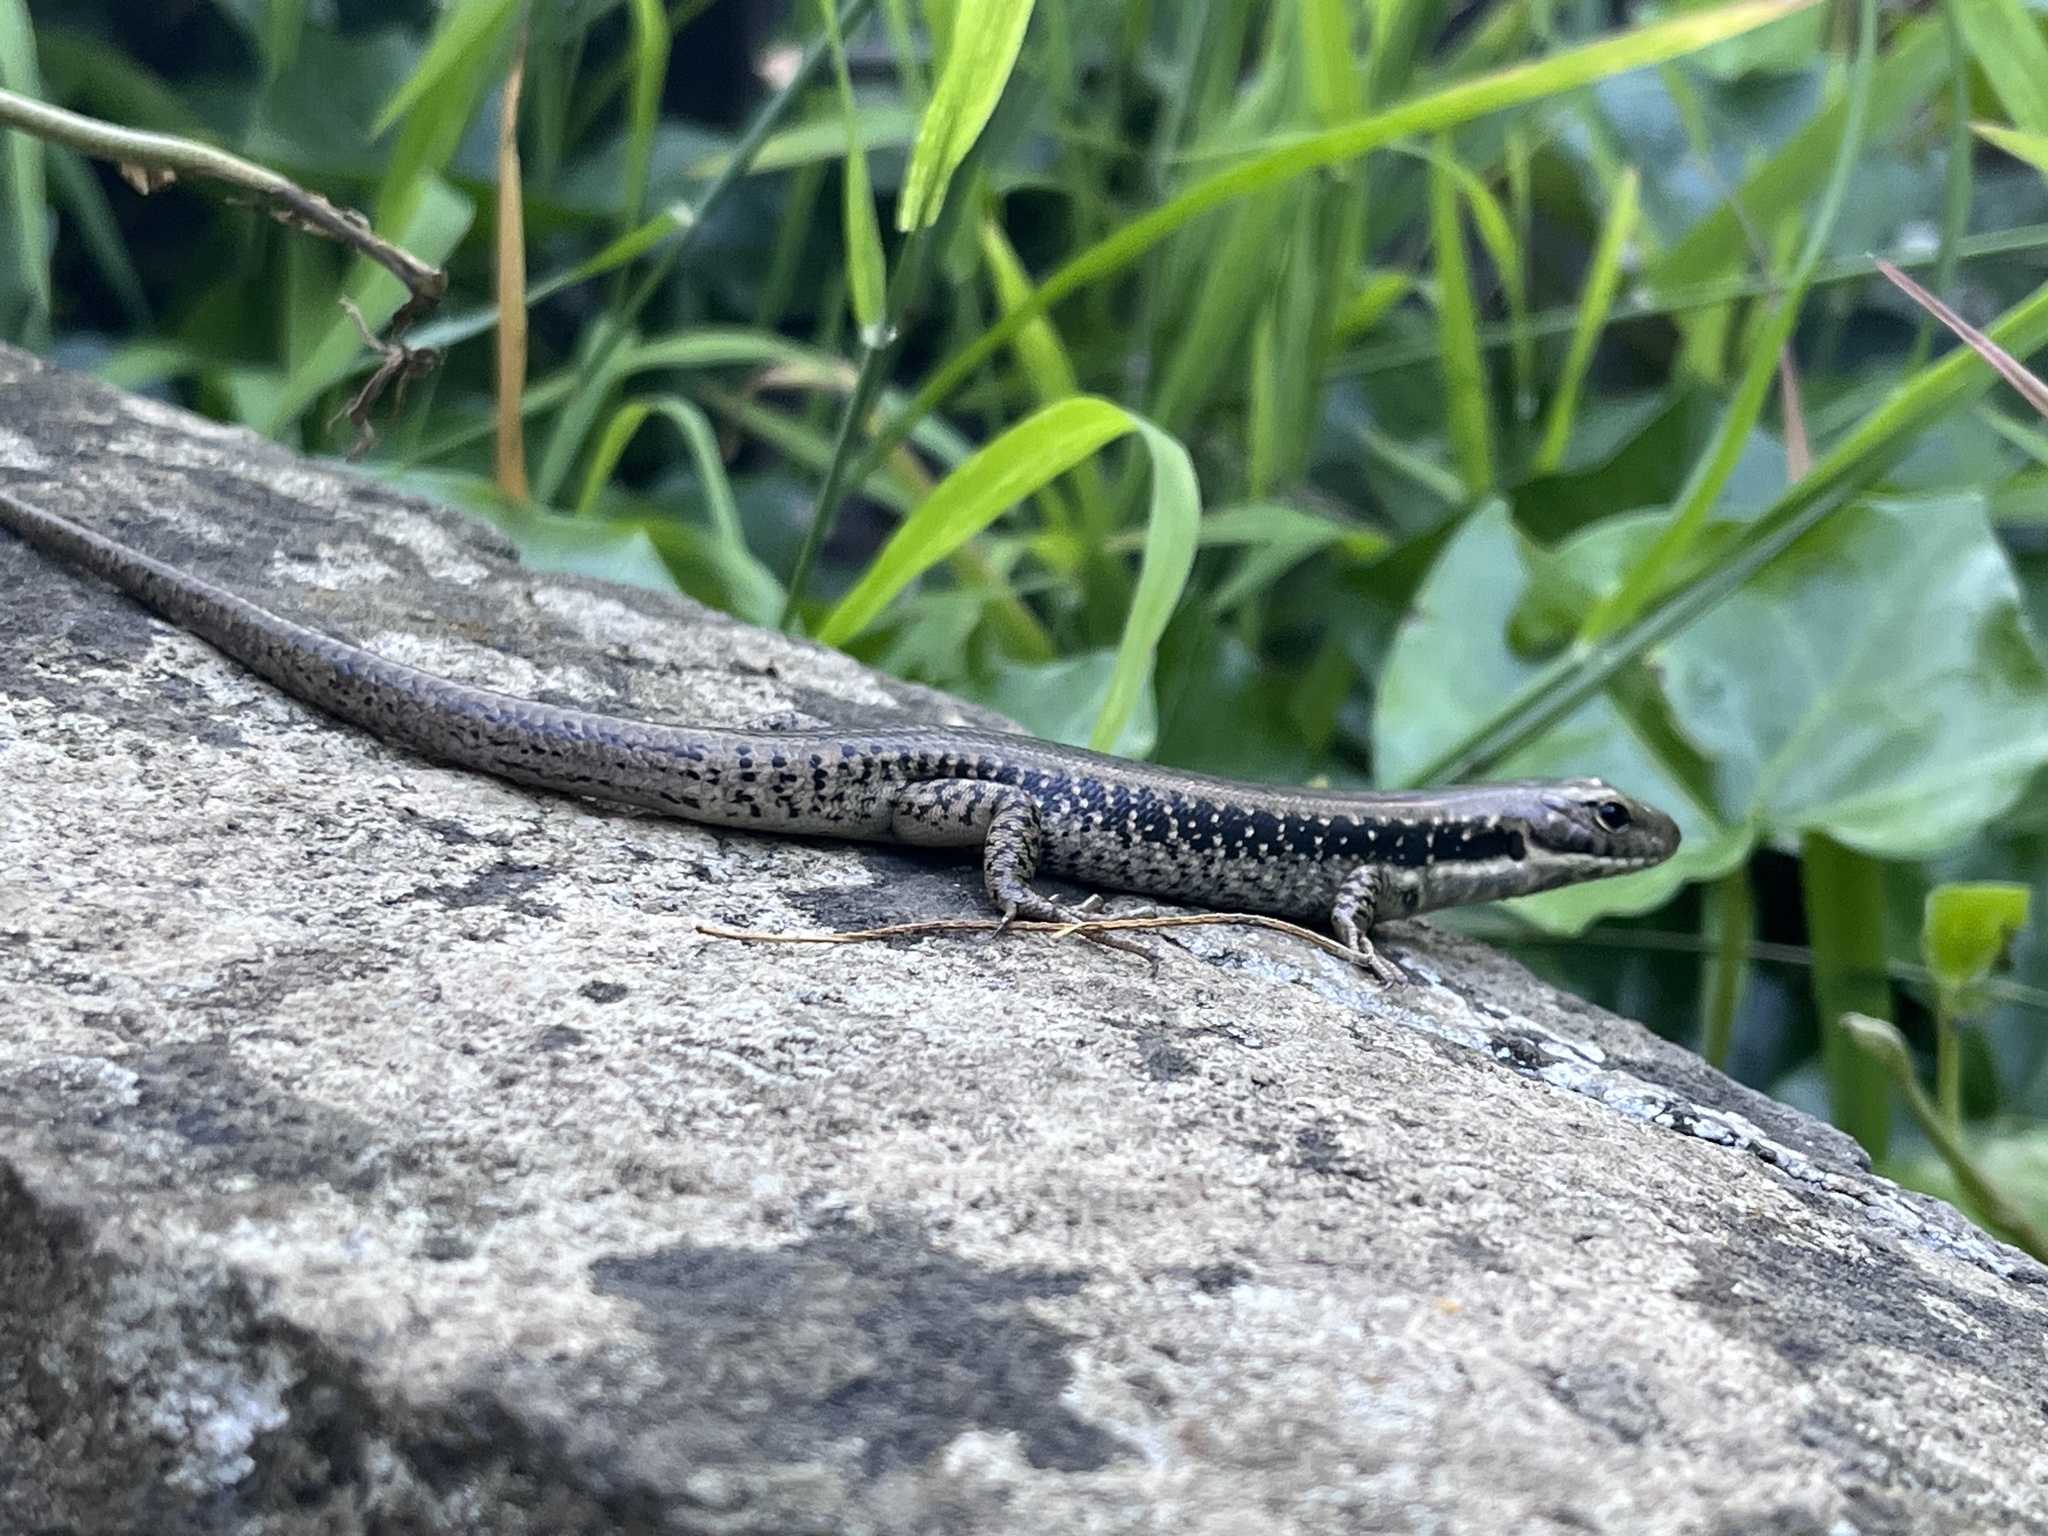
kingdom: Animalia
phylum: Chordata
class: Squamata
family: Scincidae
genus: Eulamprus
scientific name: Eulamprus tympanum
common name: Cool-temperate water-skink
